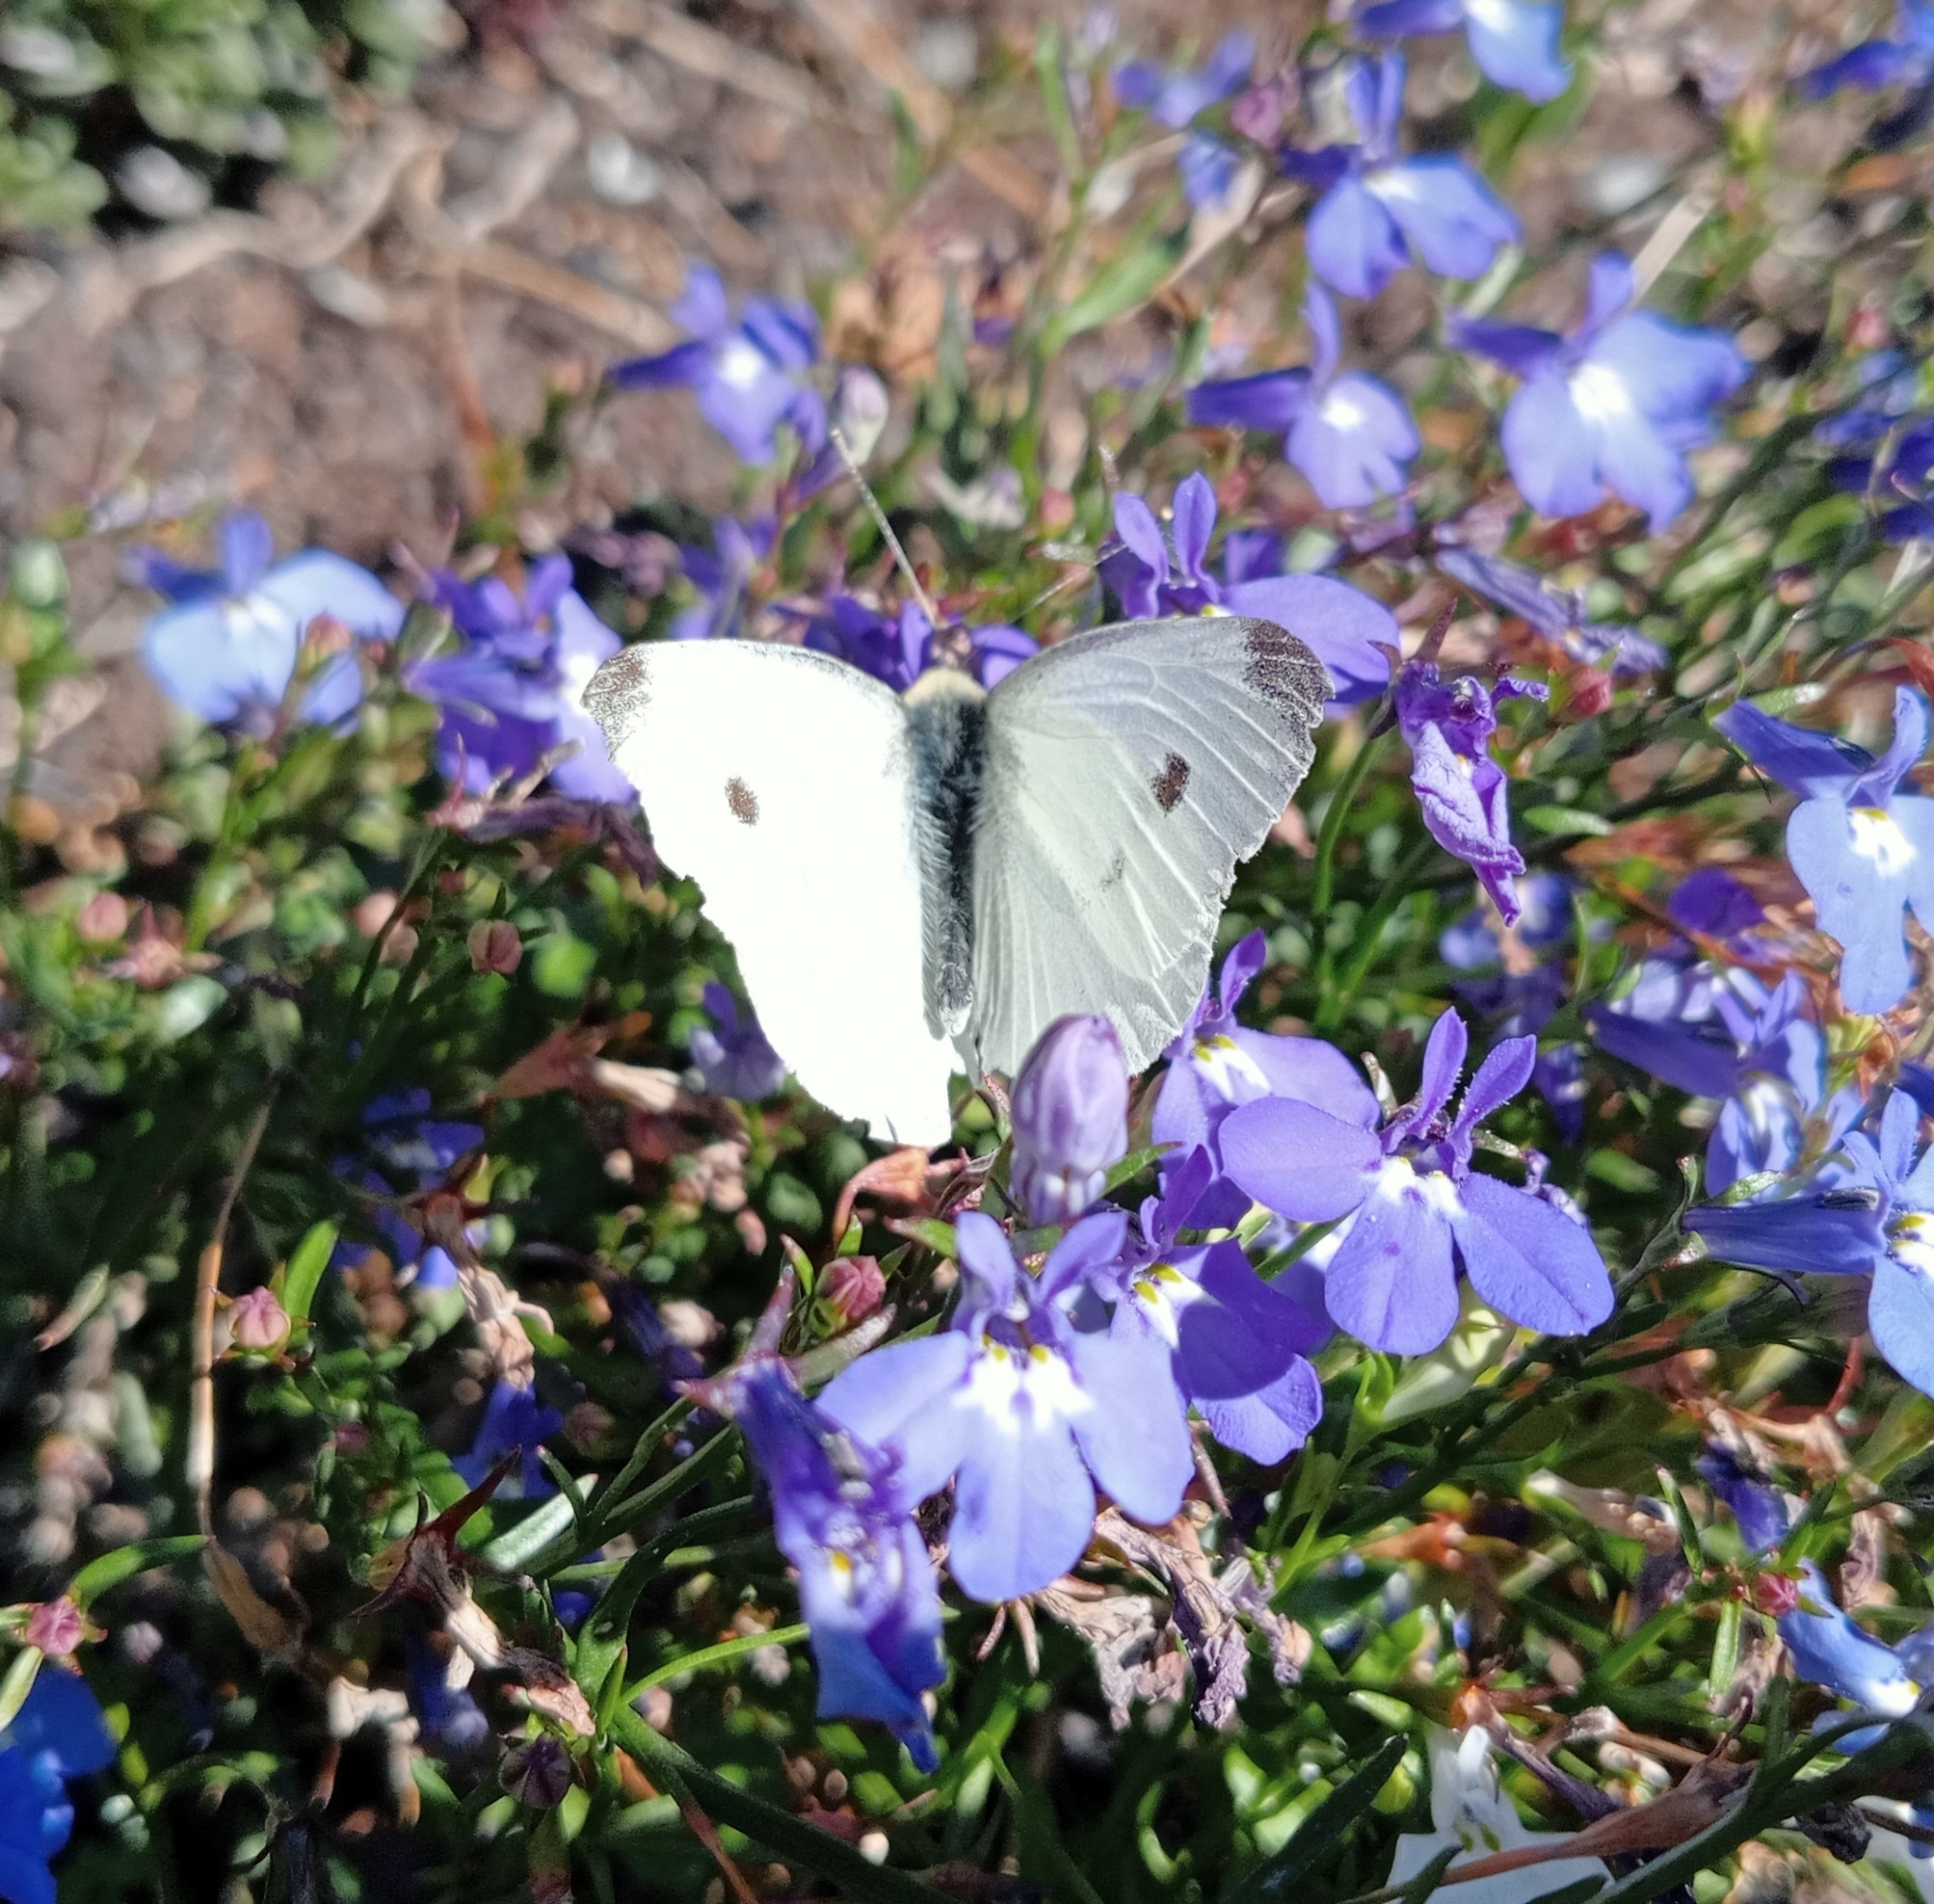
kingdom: Animalia
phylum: Arthropoda
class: Insecta
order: Lepidoptera
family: Pieridae
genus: Pieris
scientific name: Pieris rapae
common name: Small white
